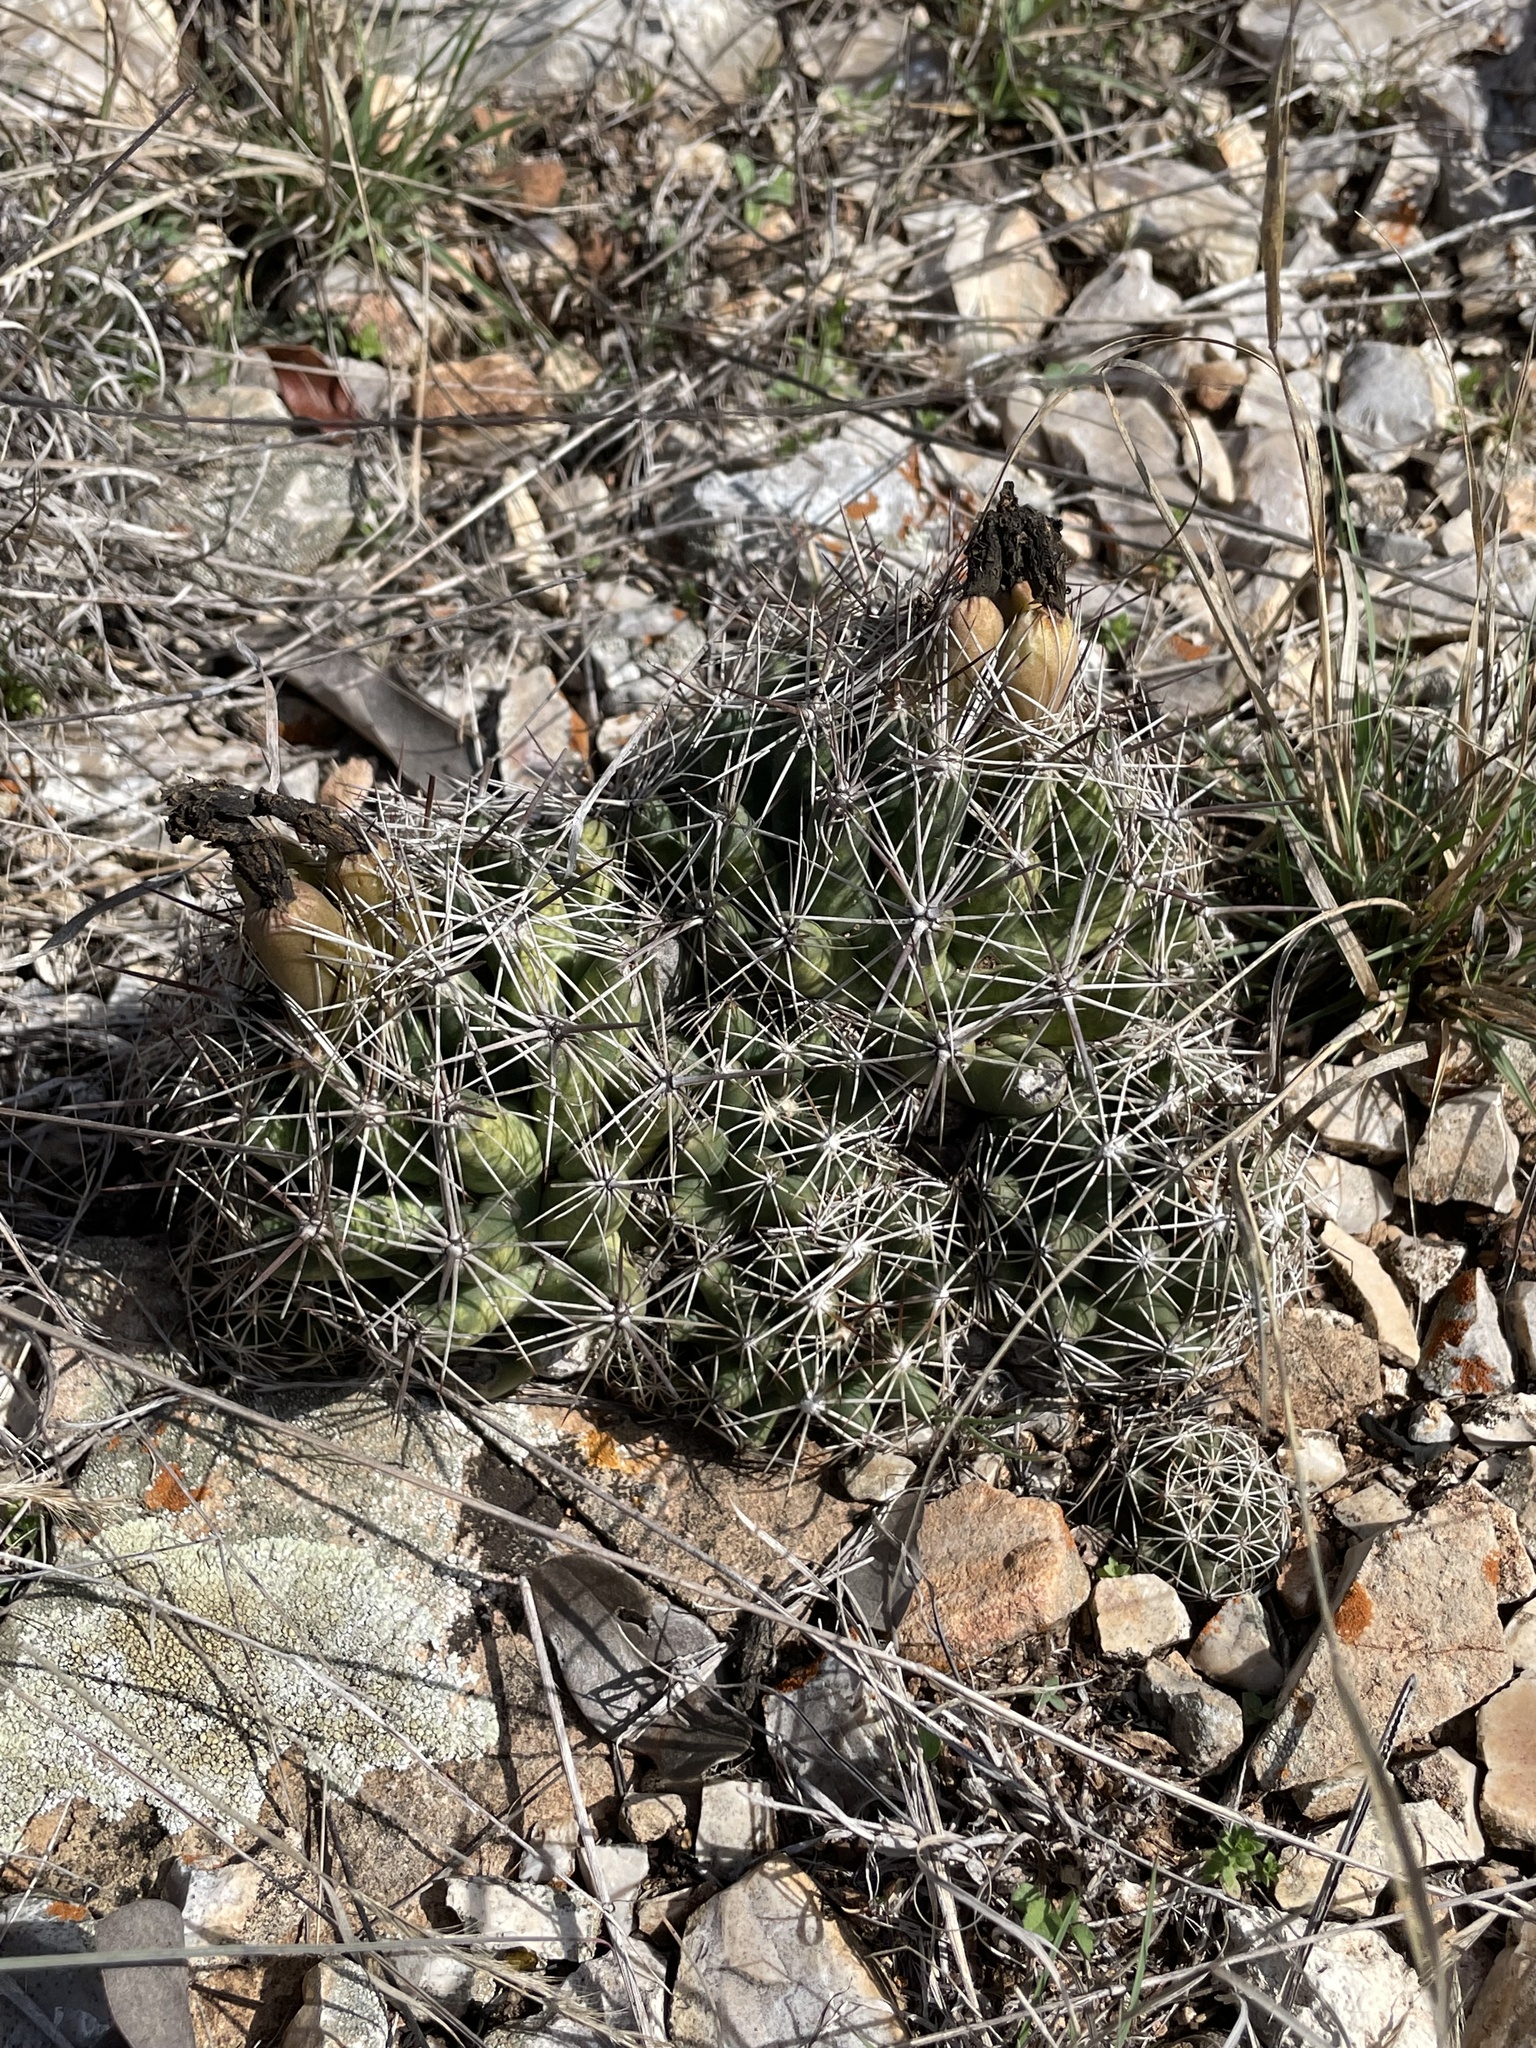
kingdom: Plantae
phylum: Tracheophyta
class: Magnoliopsida
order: Caryophyllales
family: Cactaceae
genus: Coryphantha
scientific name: Coryphantha sulcata
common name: Finger cactus
